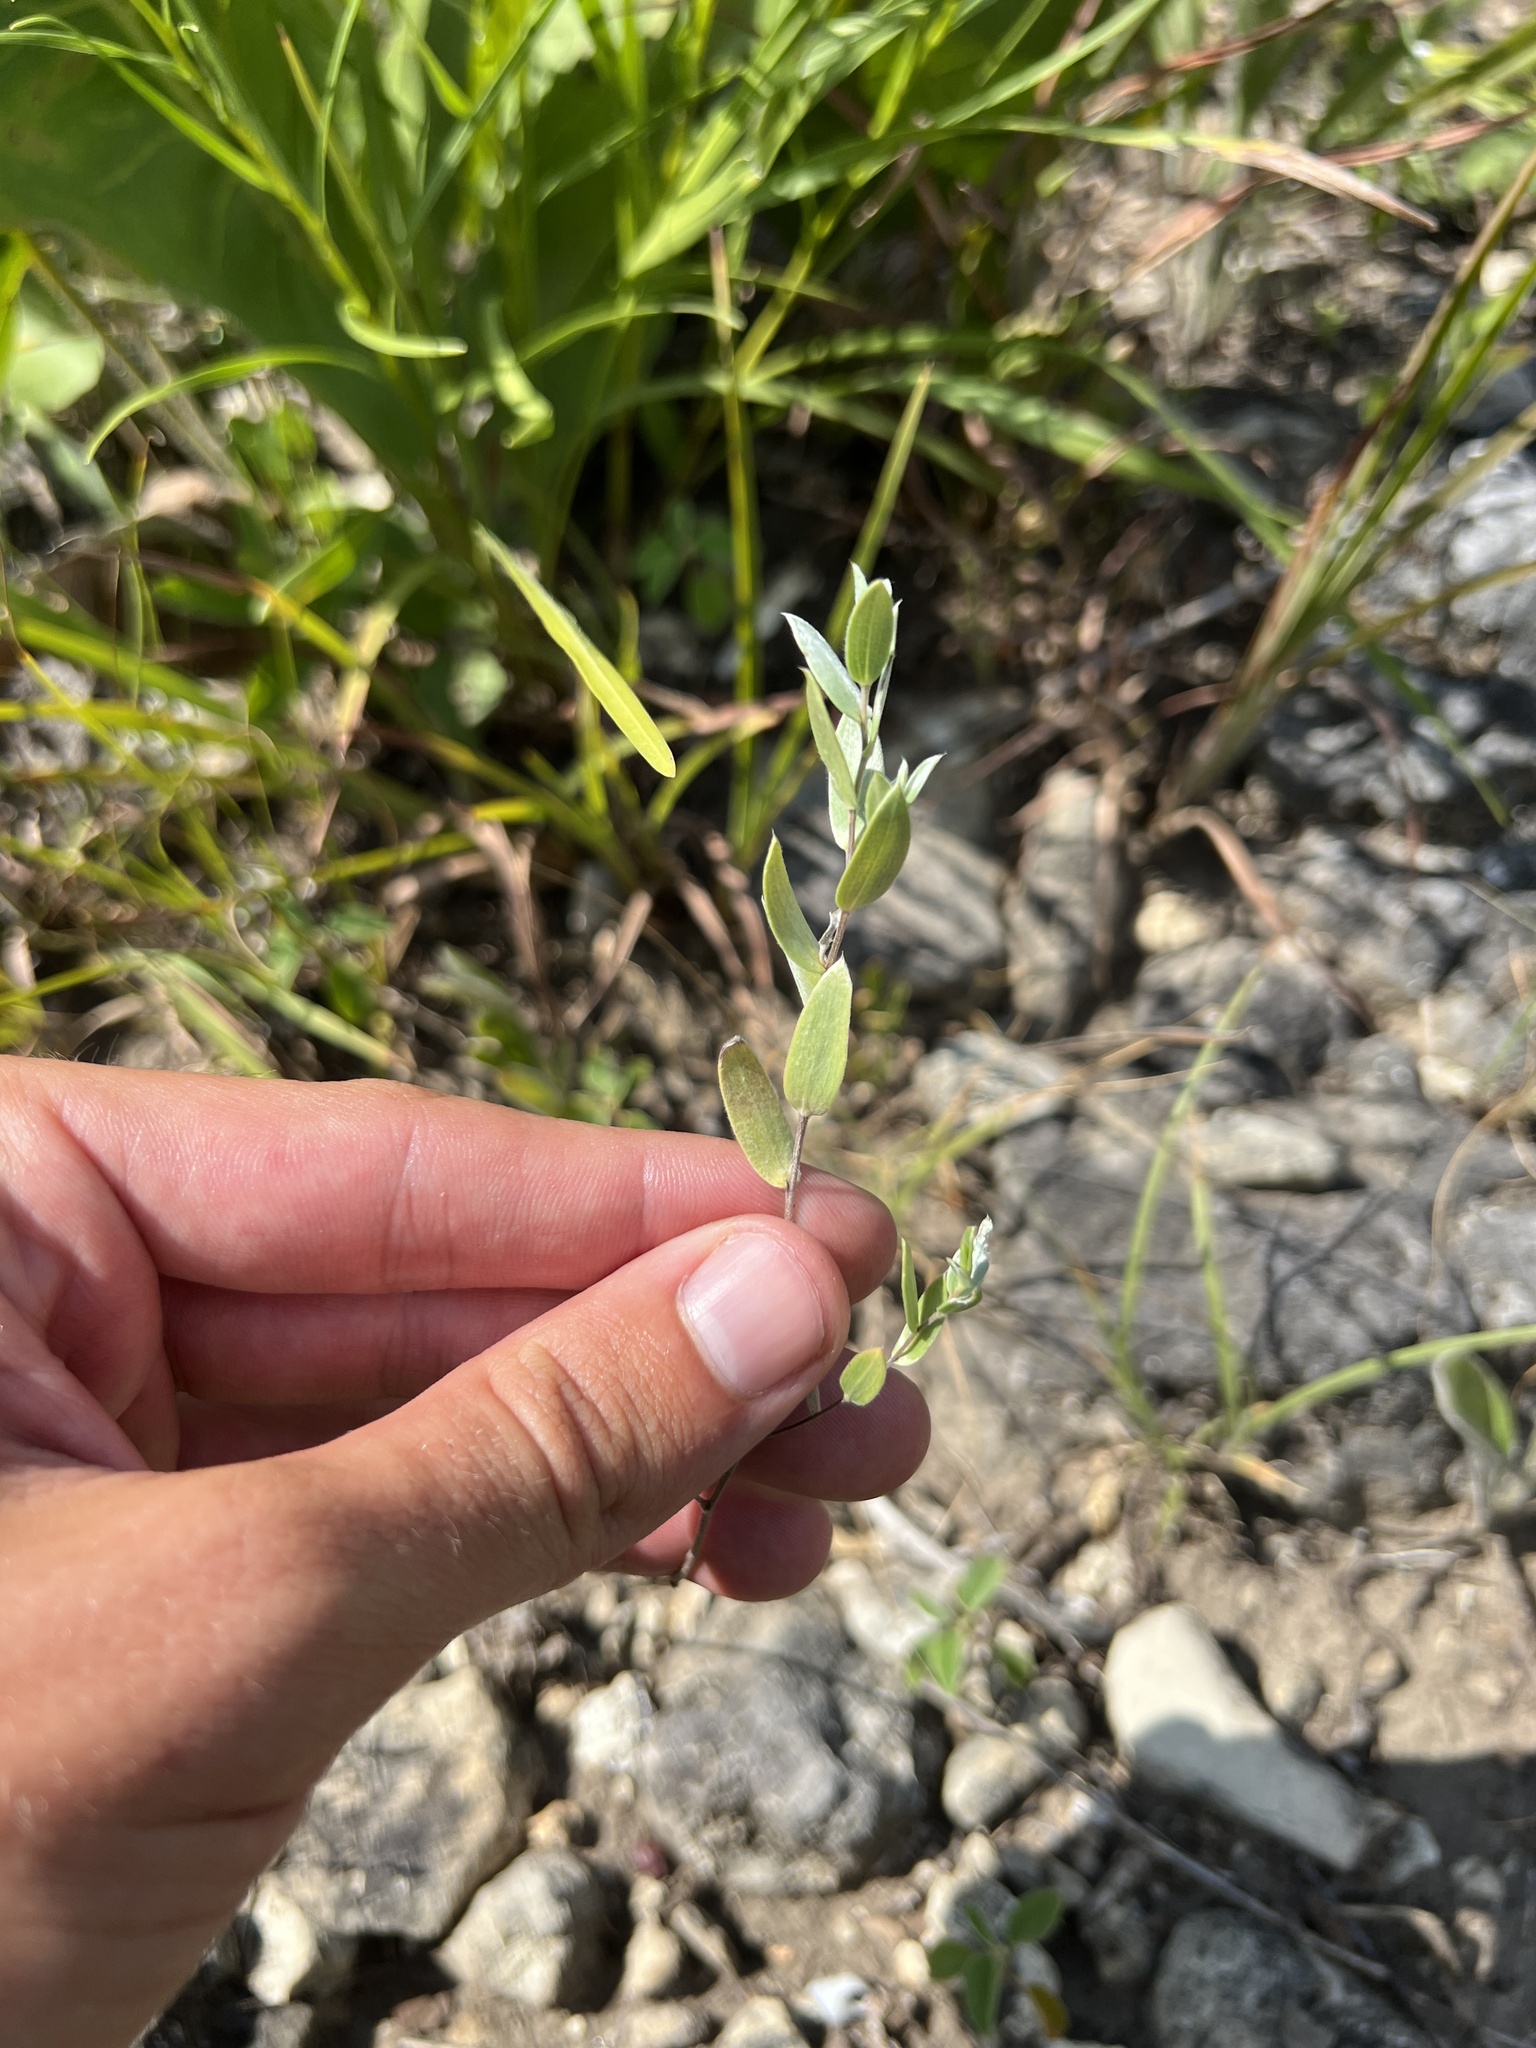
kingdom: Plantae
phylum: Tracheophyta
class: Magnoliopsida
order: Asterales
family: Asteraceae
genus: Symphyotrichum
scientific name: Symphyotrichum sericeum
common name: Silky aster
